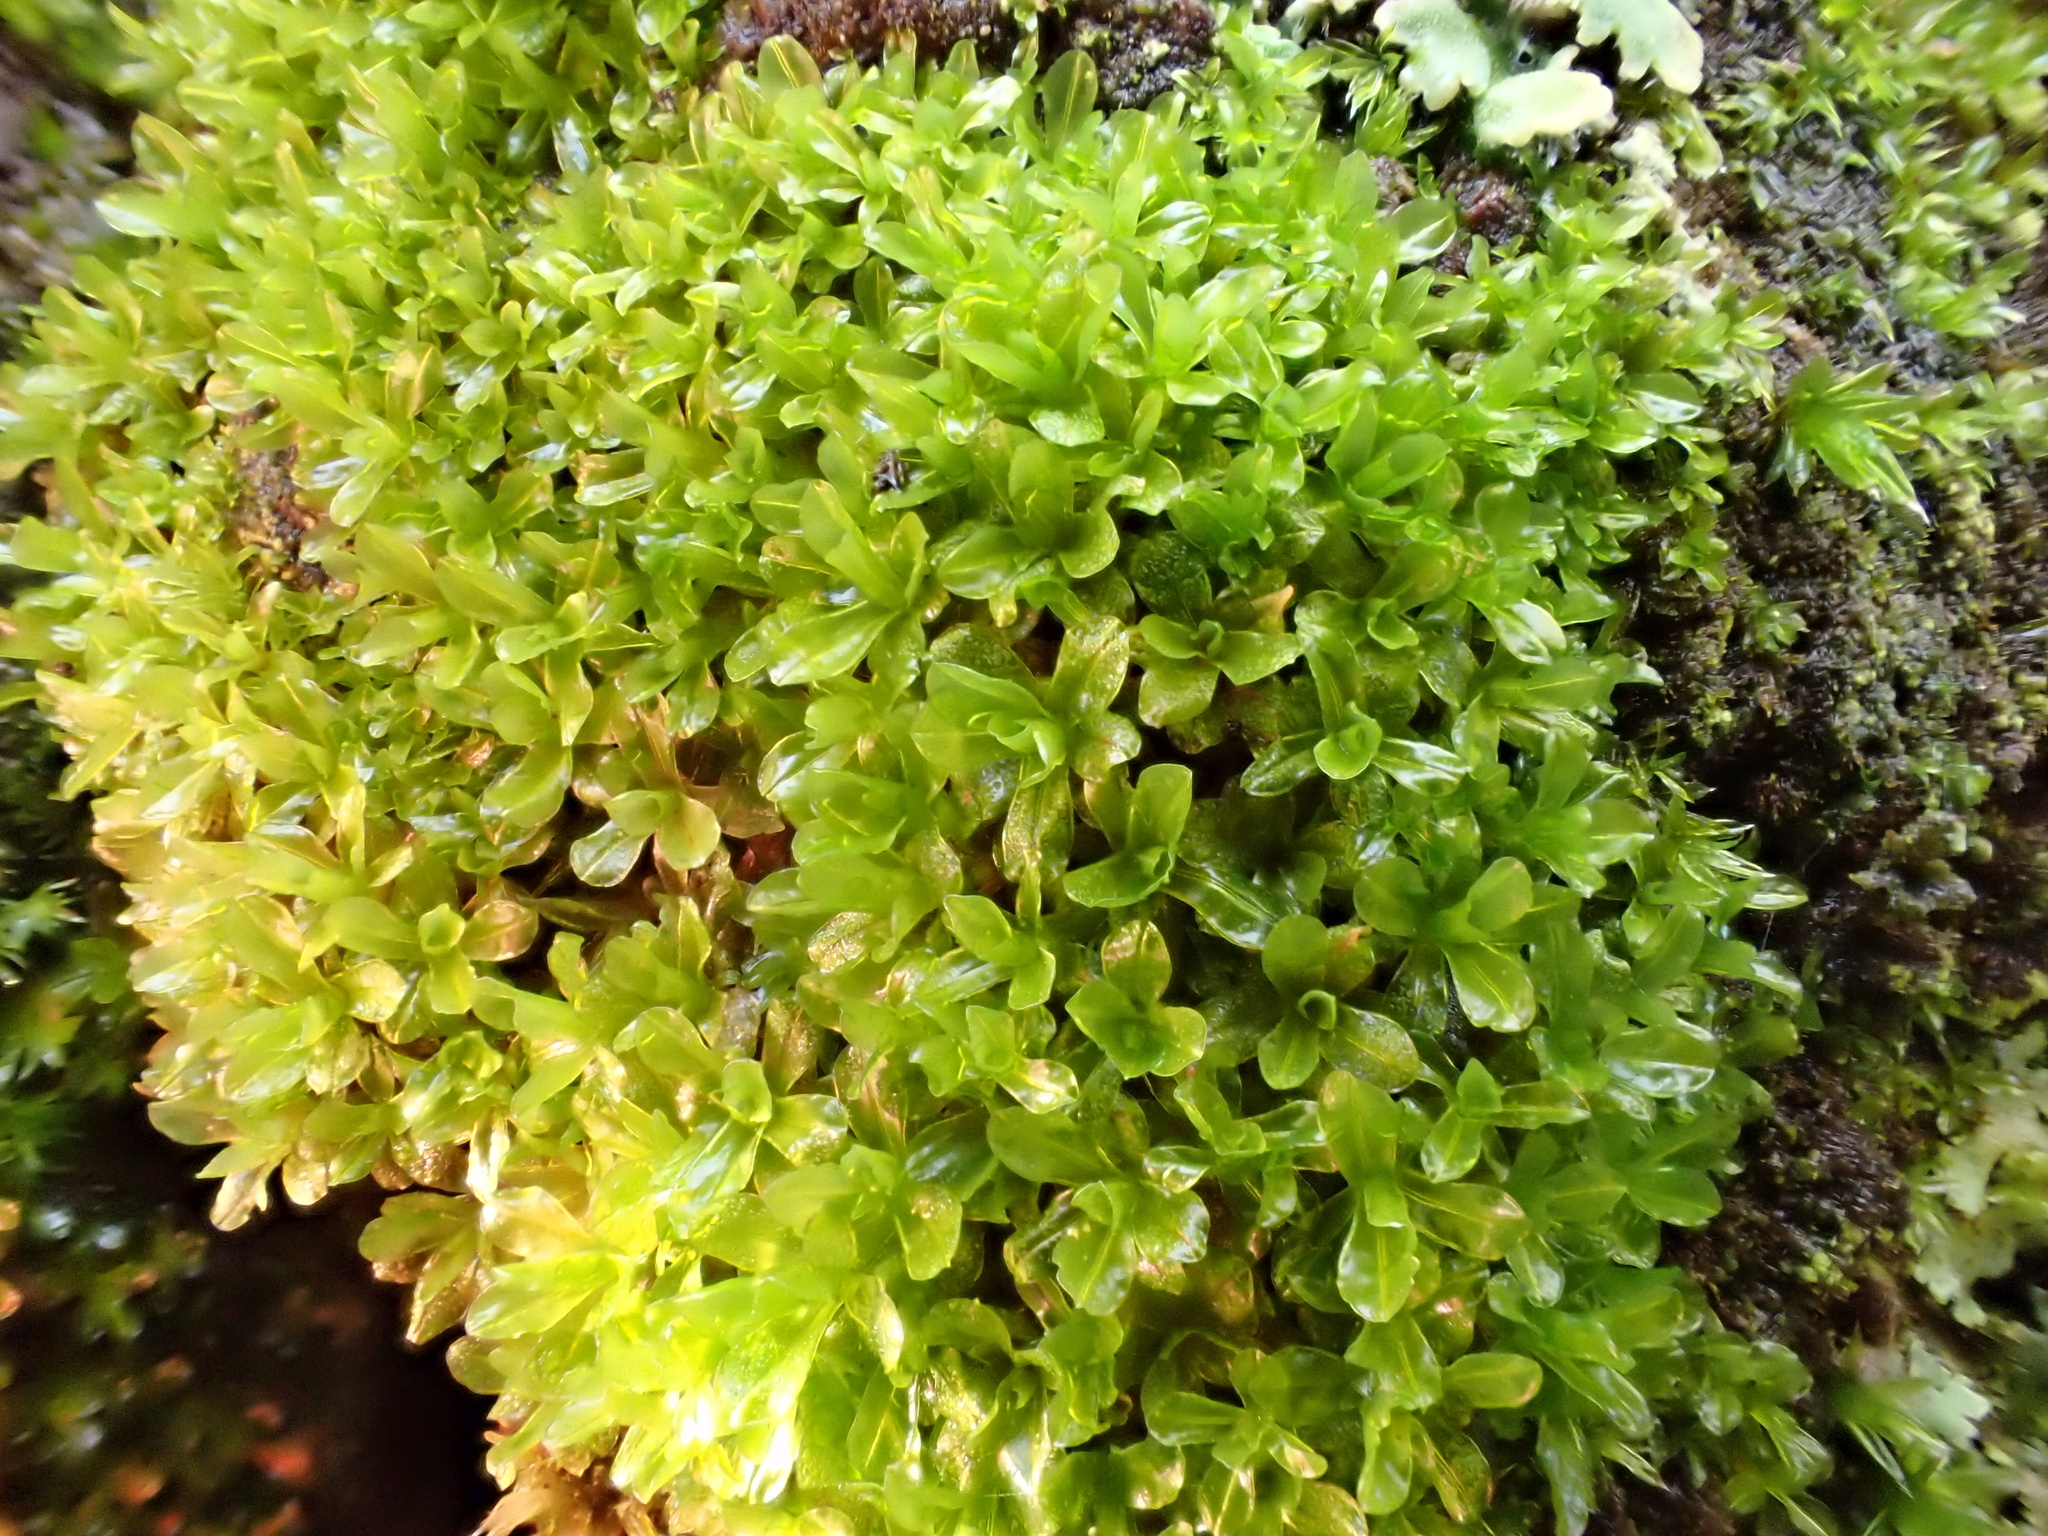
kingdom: Plantae
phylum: Bryophyta
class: Bryopsida
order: Pottiales
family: Pottiaceae
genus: Syntrichia
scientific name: Syntrichia latifolia
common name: Water screw-moss
